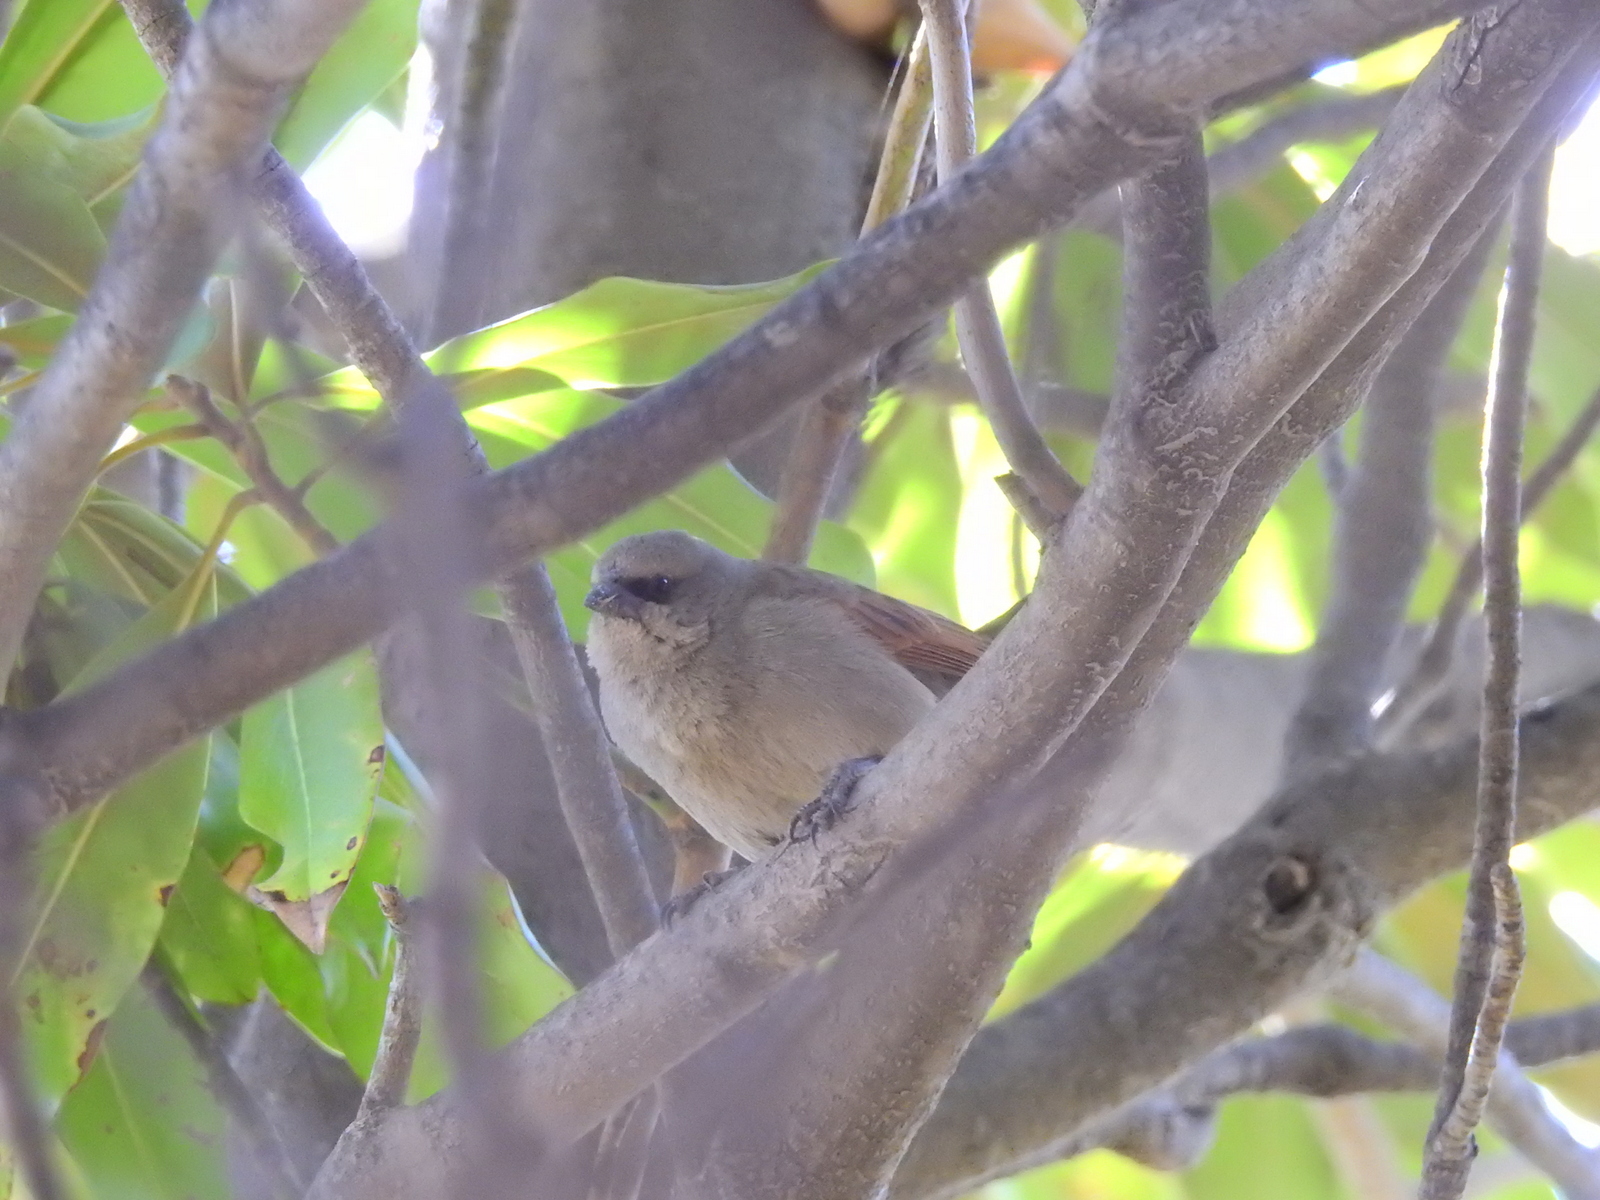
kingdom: Animalia
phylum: Chordata
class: Aves
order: Passeriformes
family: Icteridae
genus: Agelaioides
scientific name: Agelaioides badius
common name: Baywing
